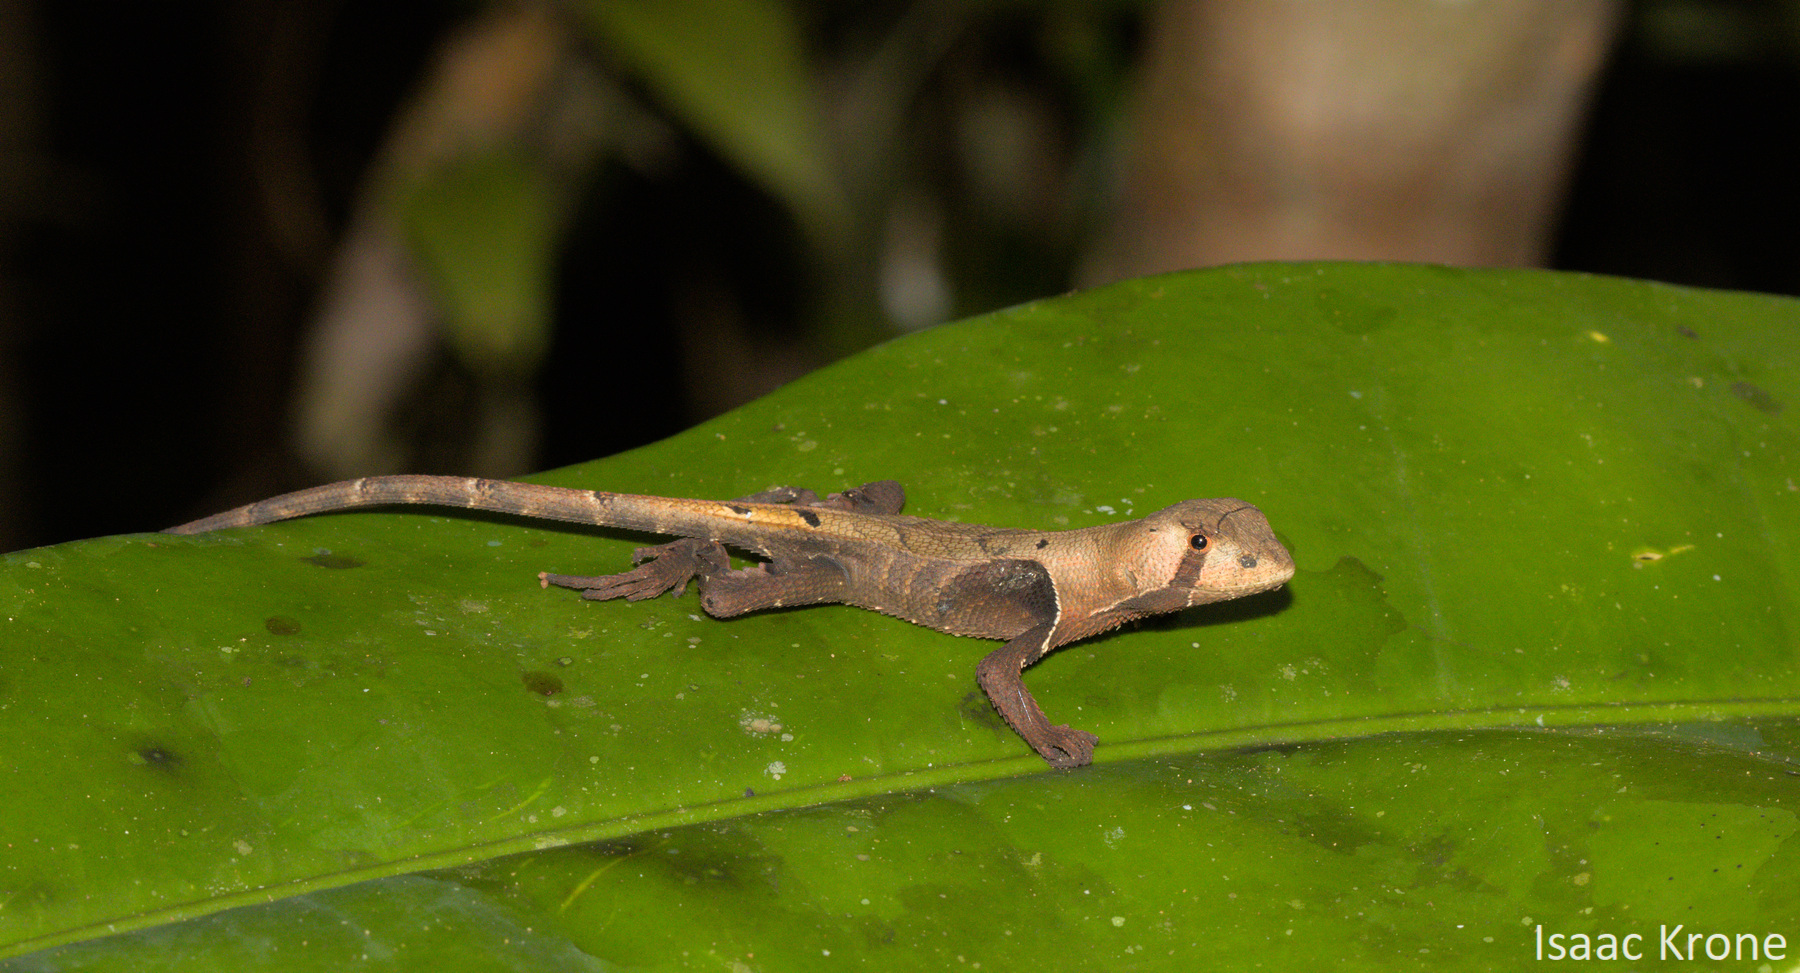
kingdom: Animalia
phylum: Chordata
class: Squamata
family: Tropiduridae
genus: Stenocercus
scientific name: Stenocercus fimbriatus
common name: Western leaf lizard
